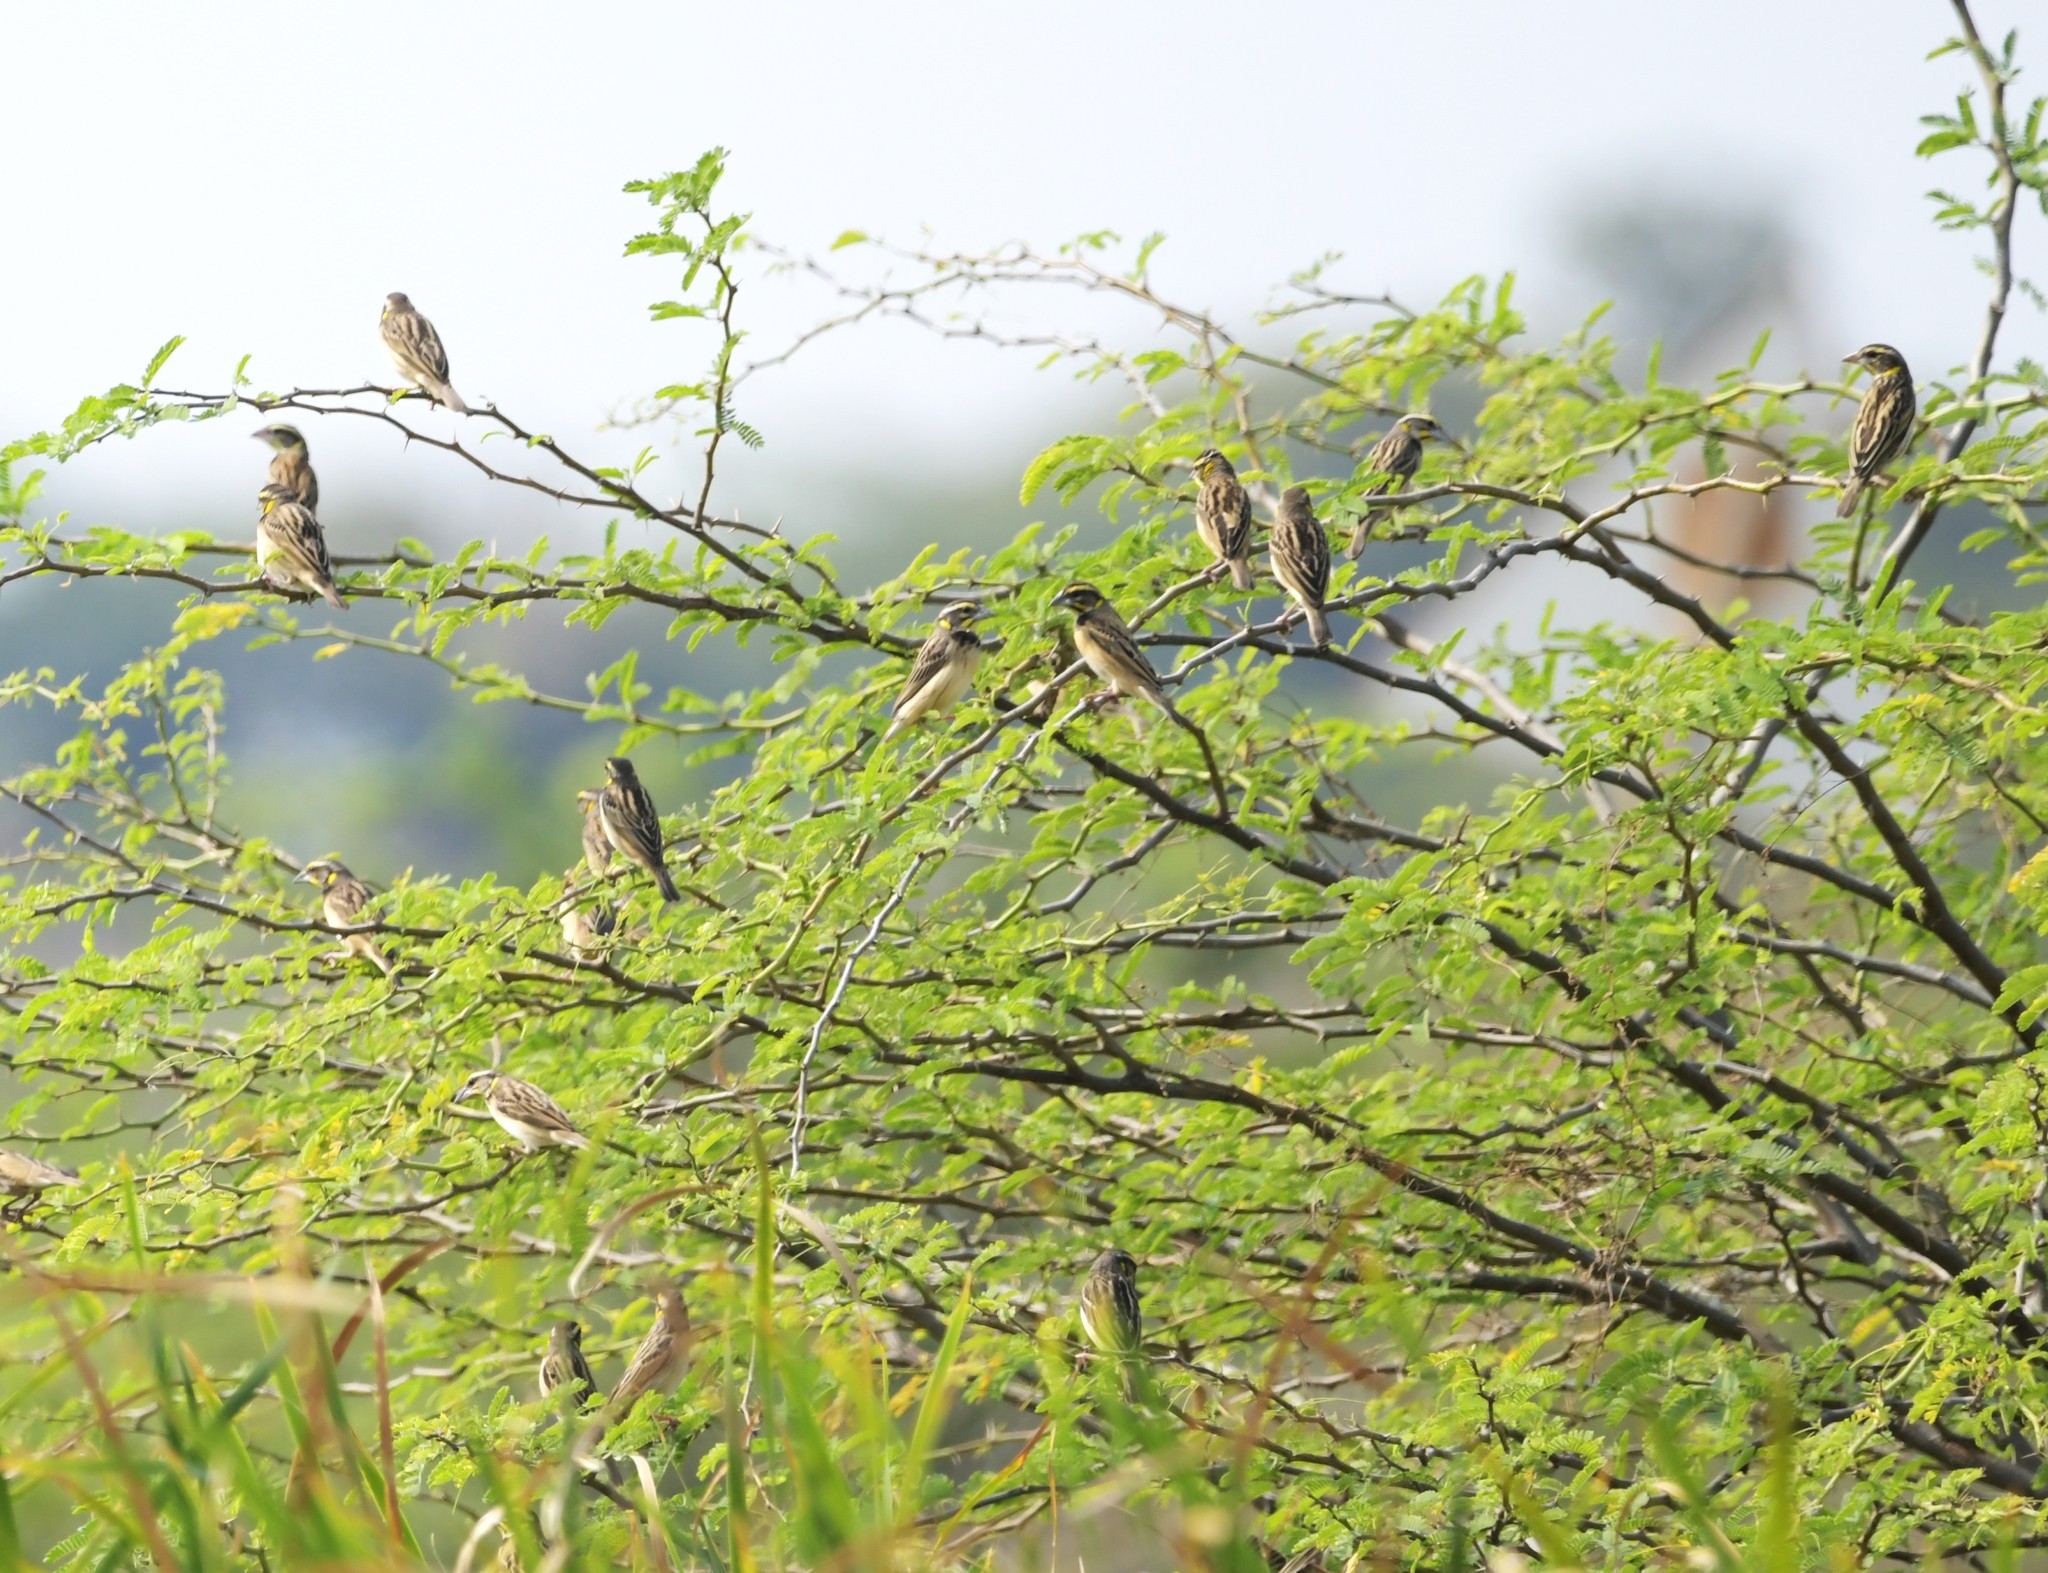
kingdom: Animalia
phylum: Chordata
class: Aves
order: Passeriformes
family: Ploceidae
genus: Ploceus
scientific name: Ploceus benghalensis
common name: Black-breasted weaver
